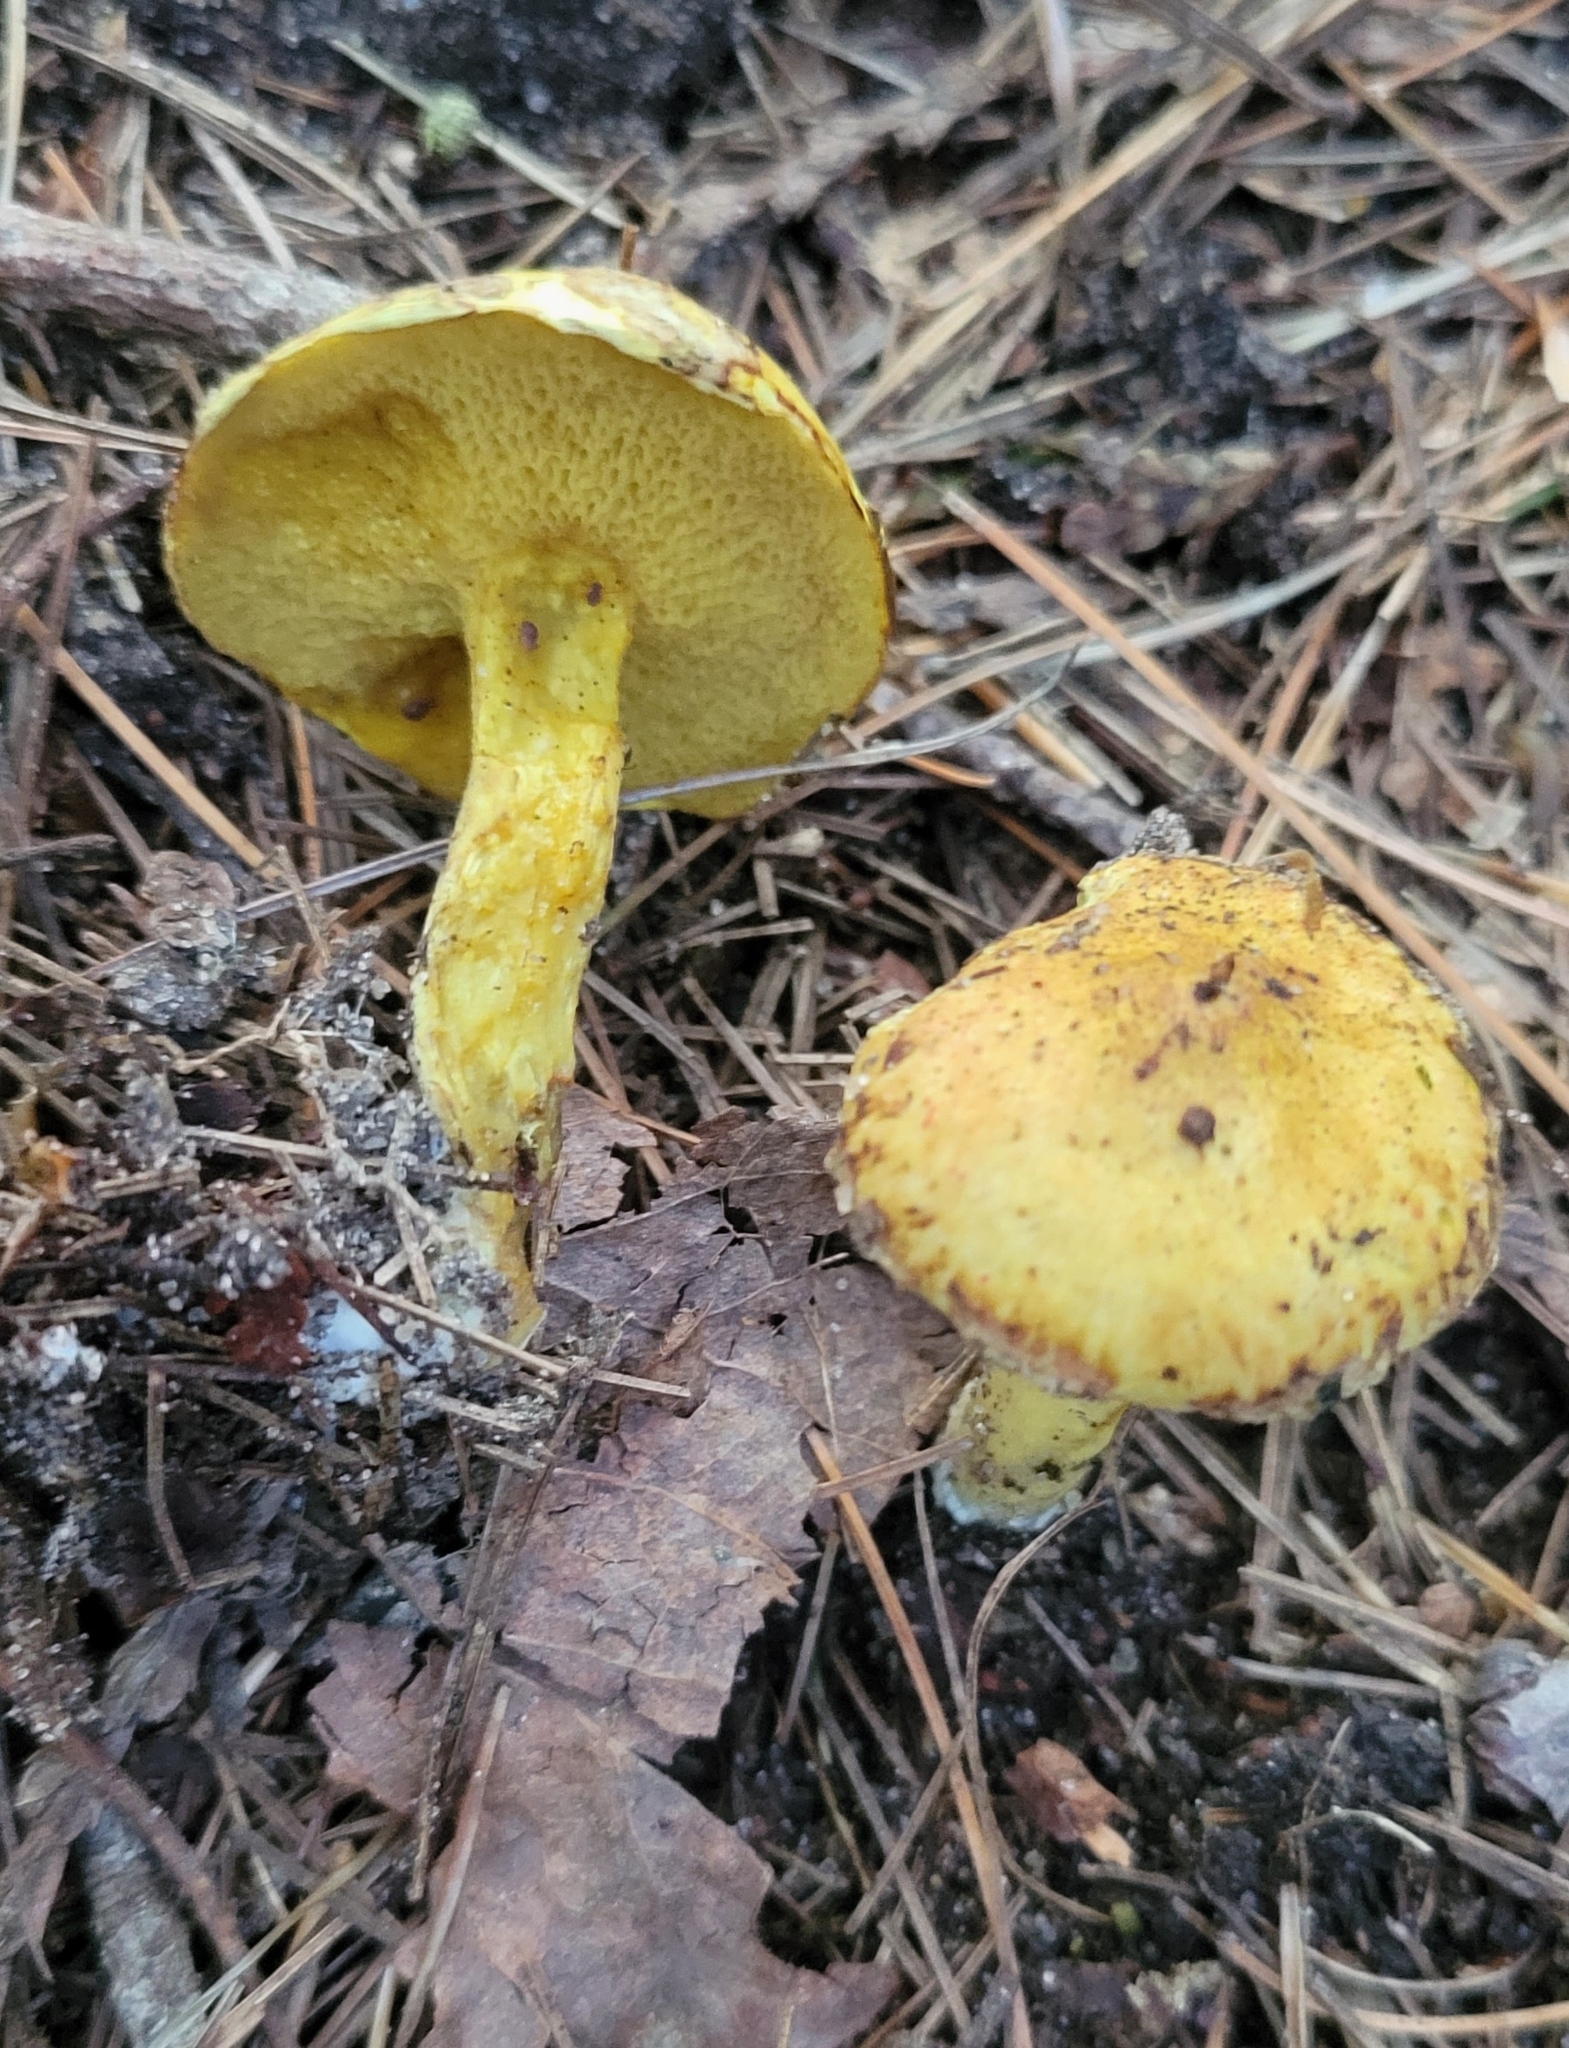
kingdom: Fungi
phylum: Basidiomycota
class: Agaricomycetes
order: Boletales
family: Suillaceae
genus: Suillus
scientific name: Suillus americanus
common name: Chicken fat mushroom
